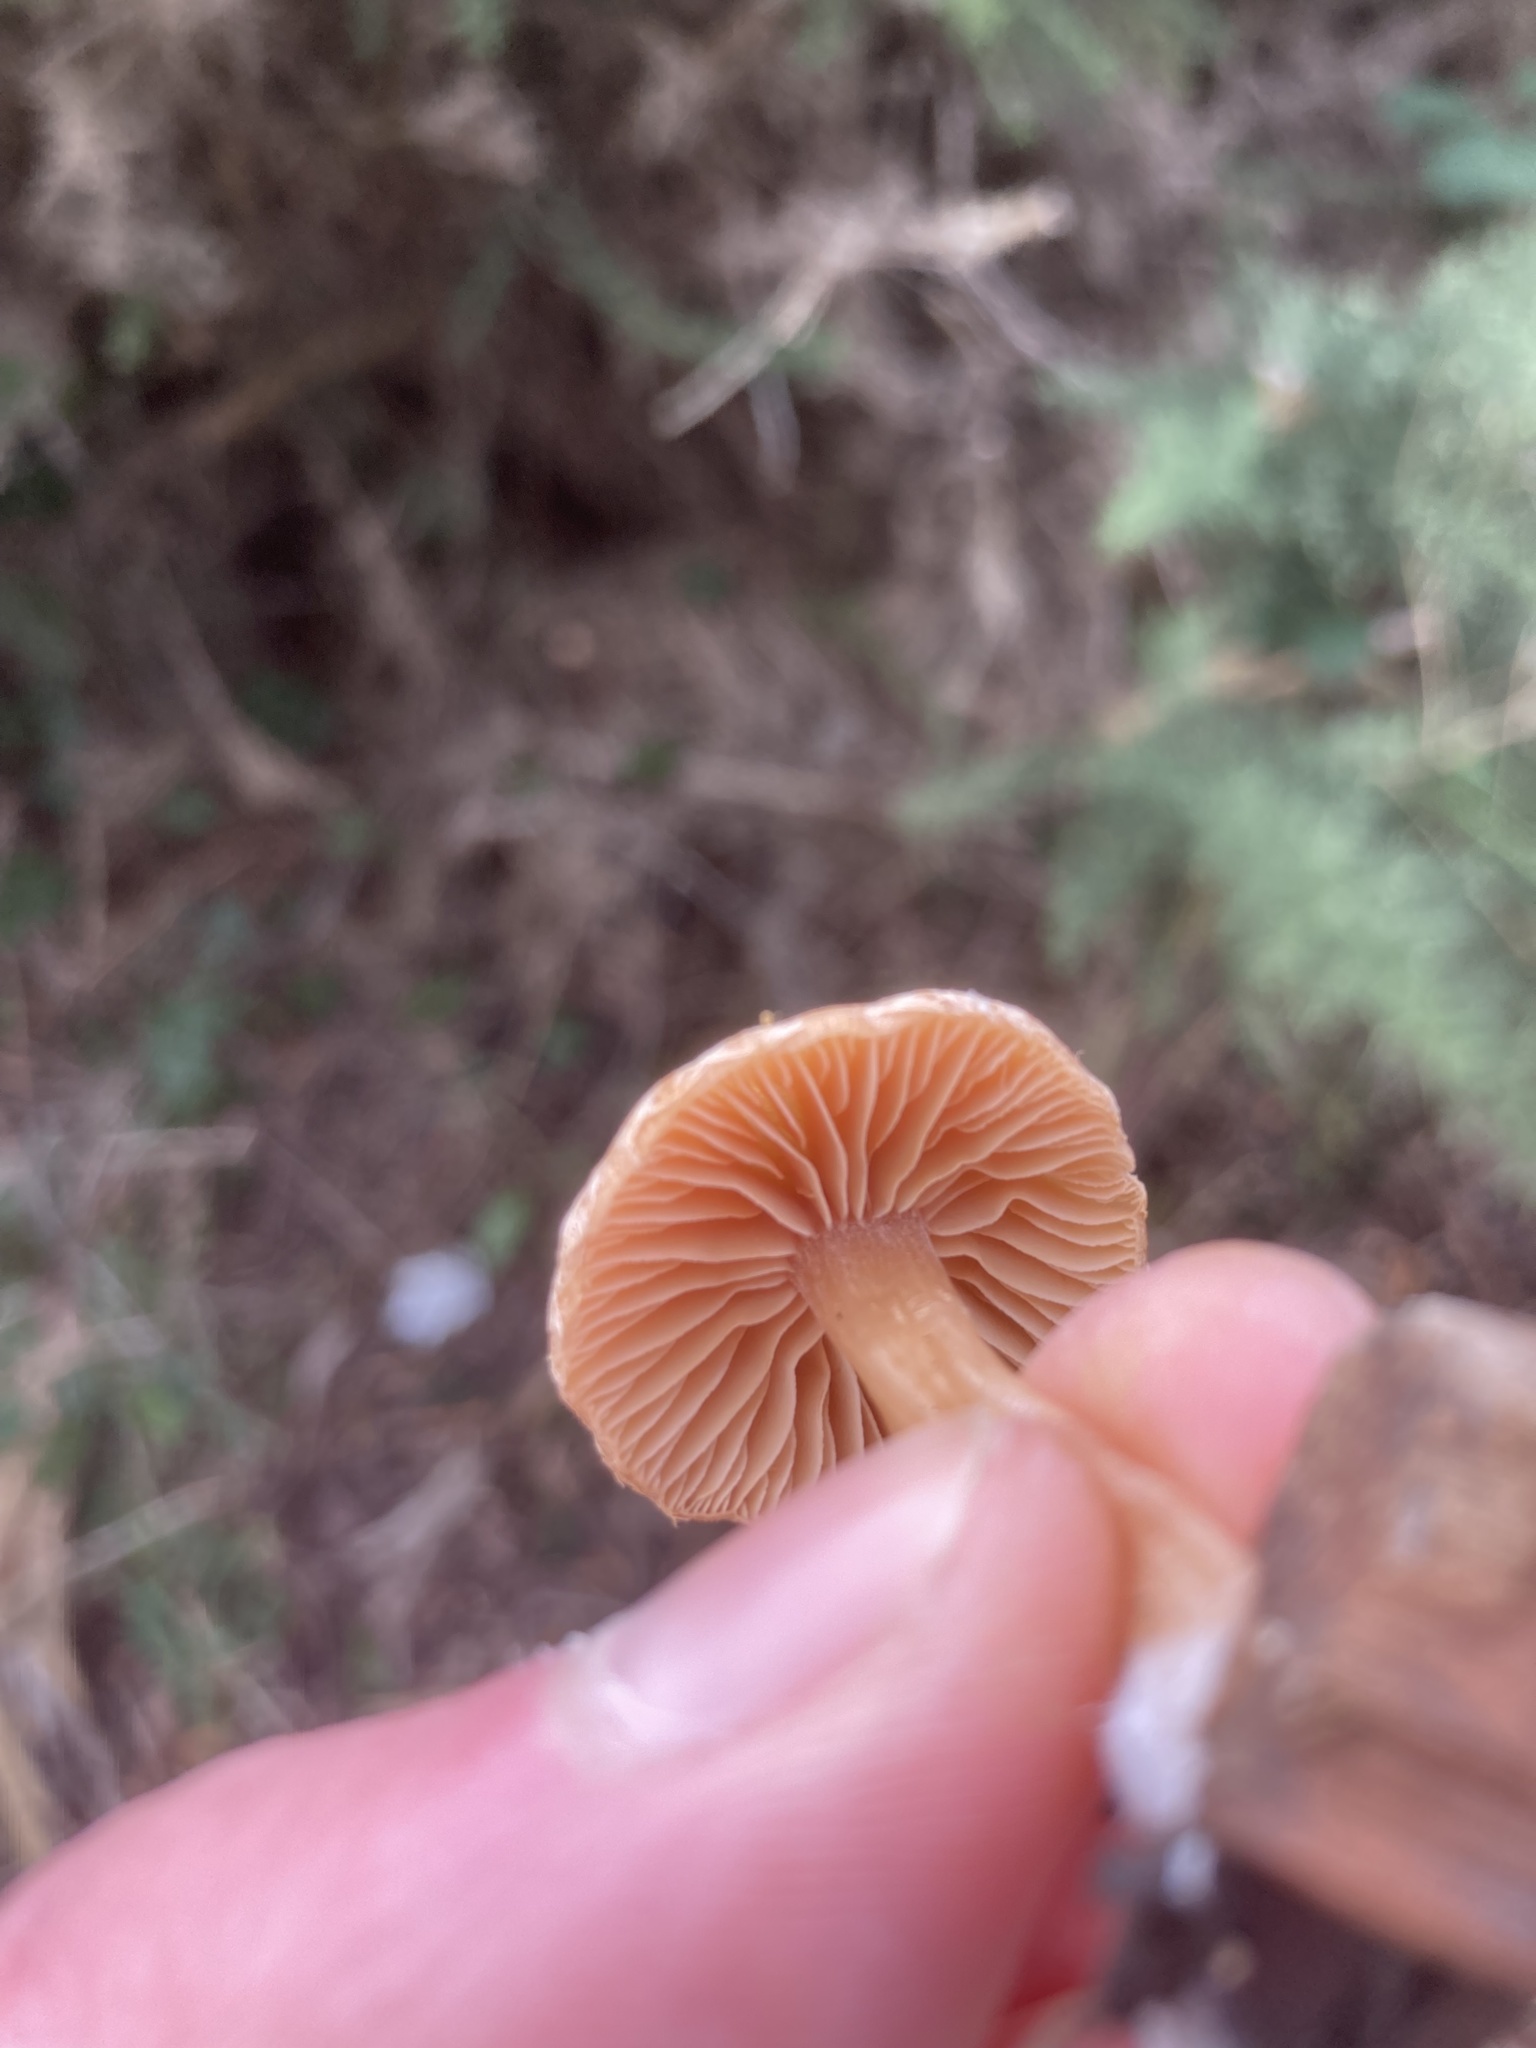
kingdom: Fungi
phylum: Basidiomycota
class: Agaricomycetes
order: Agaricales
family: Tubariaceae
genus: Tubaria
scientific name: Tubaria furfuracea
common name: Scurfy twiglet
